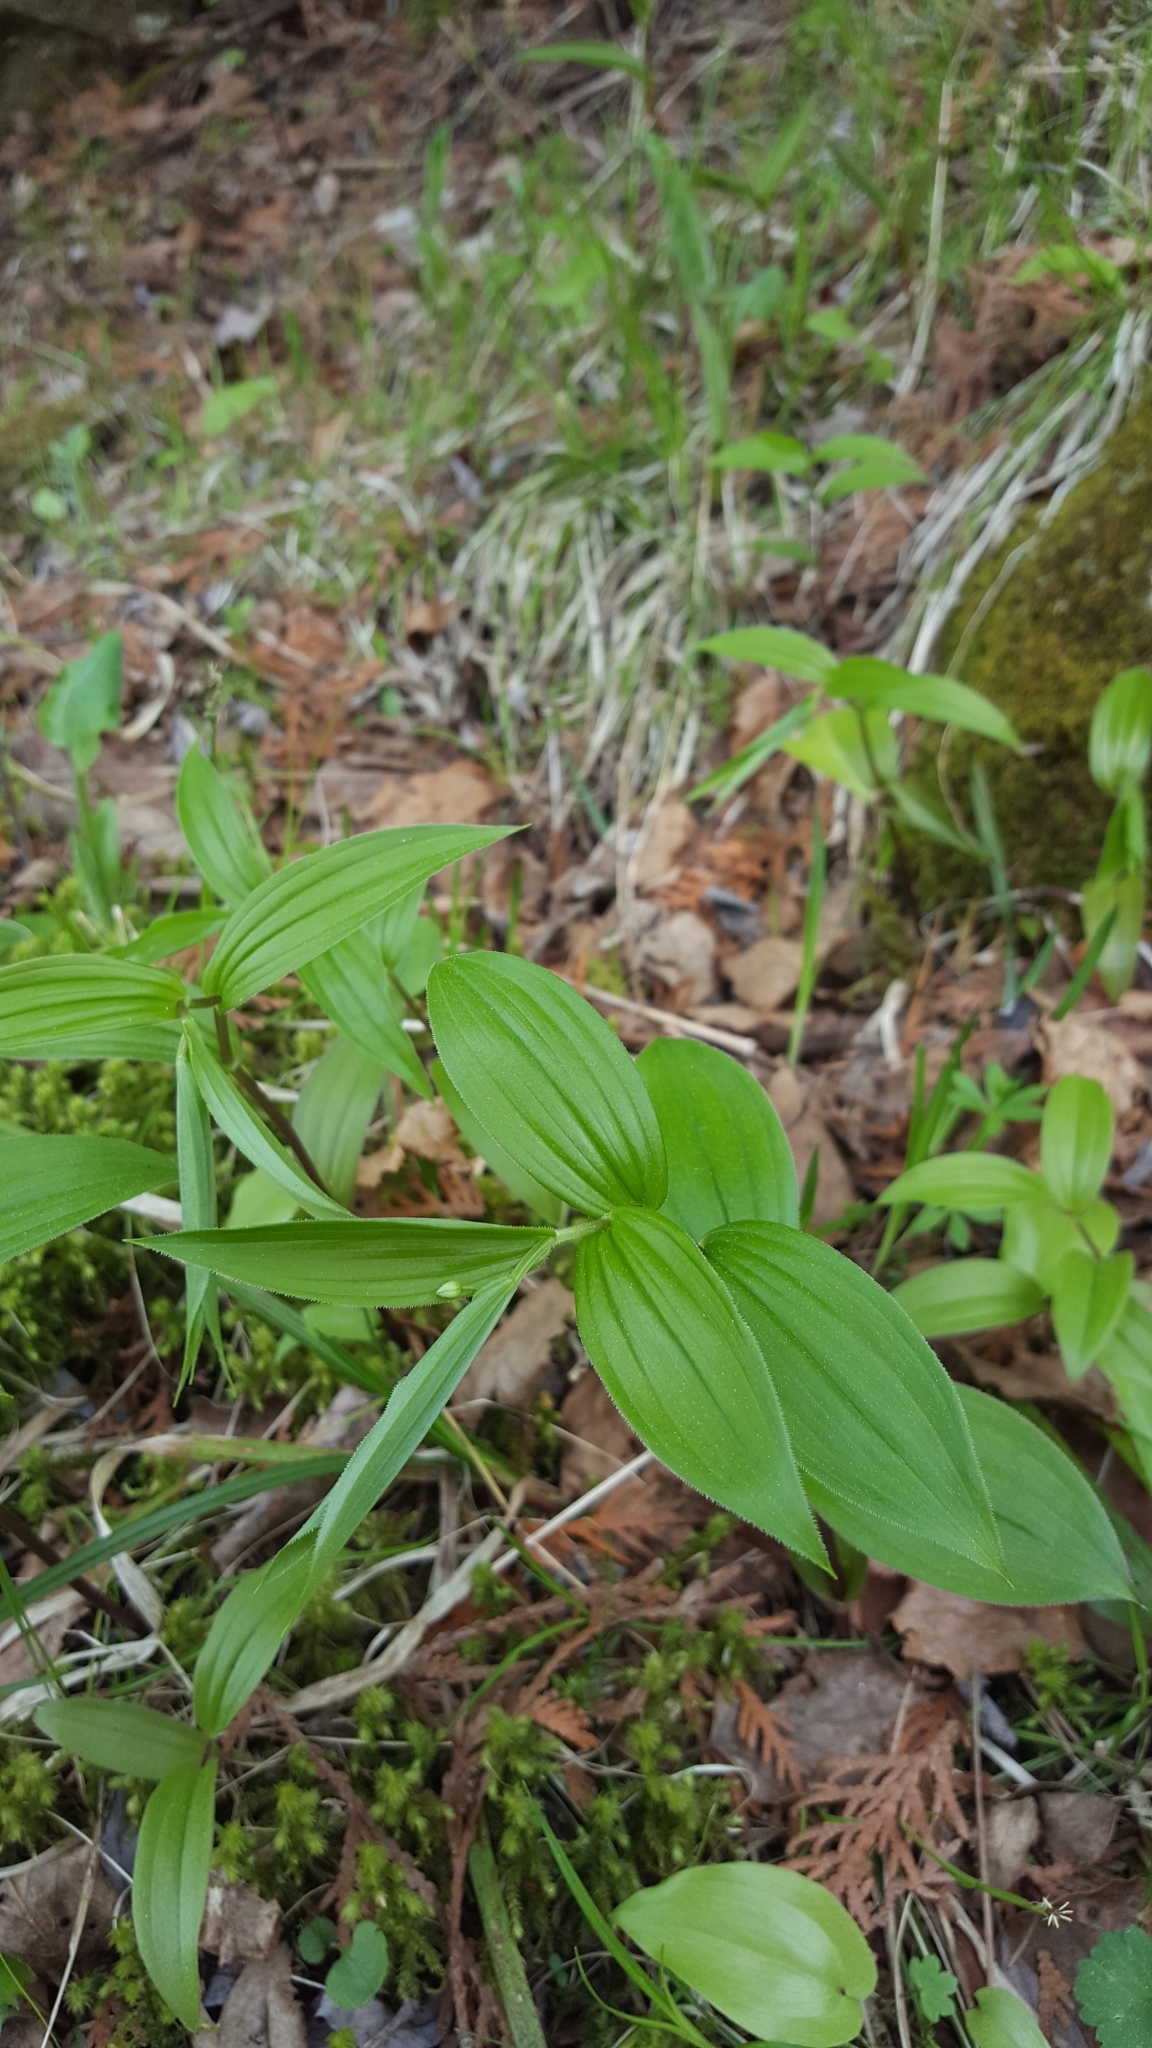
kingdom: Plantae
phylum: Tracheophyta
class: Liliopsida
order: Liliales
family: Liliaceae
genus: Streptopus
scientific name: Streptopus lanceolatus
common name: Rose mandarin
